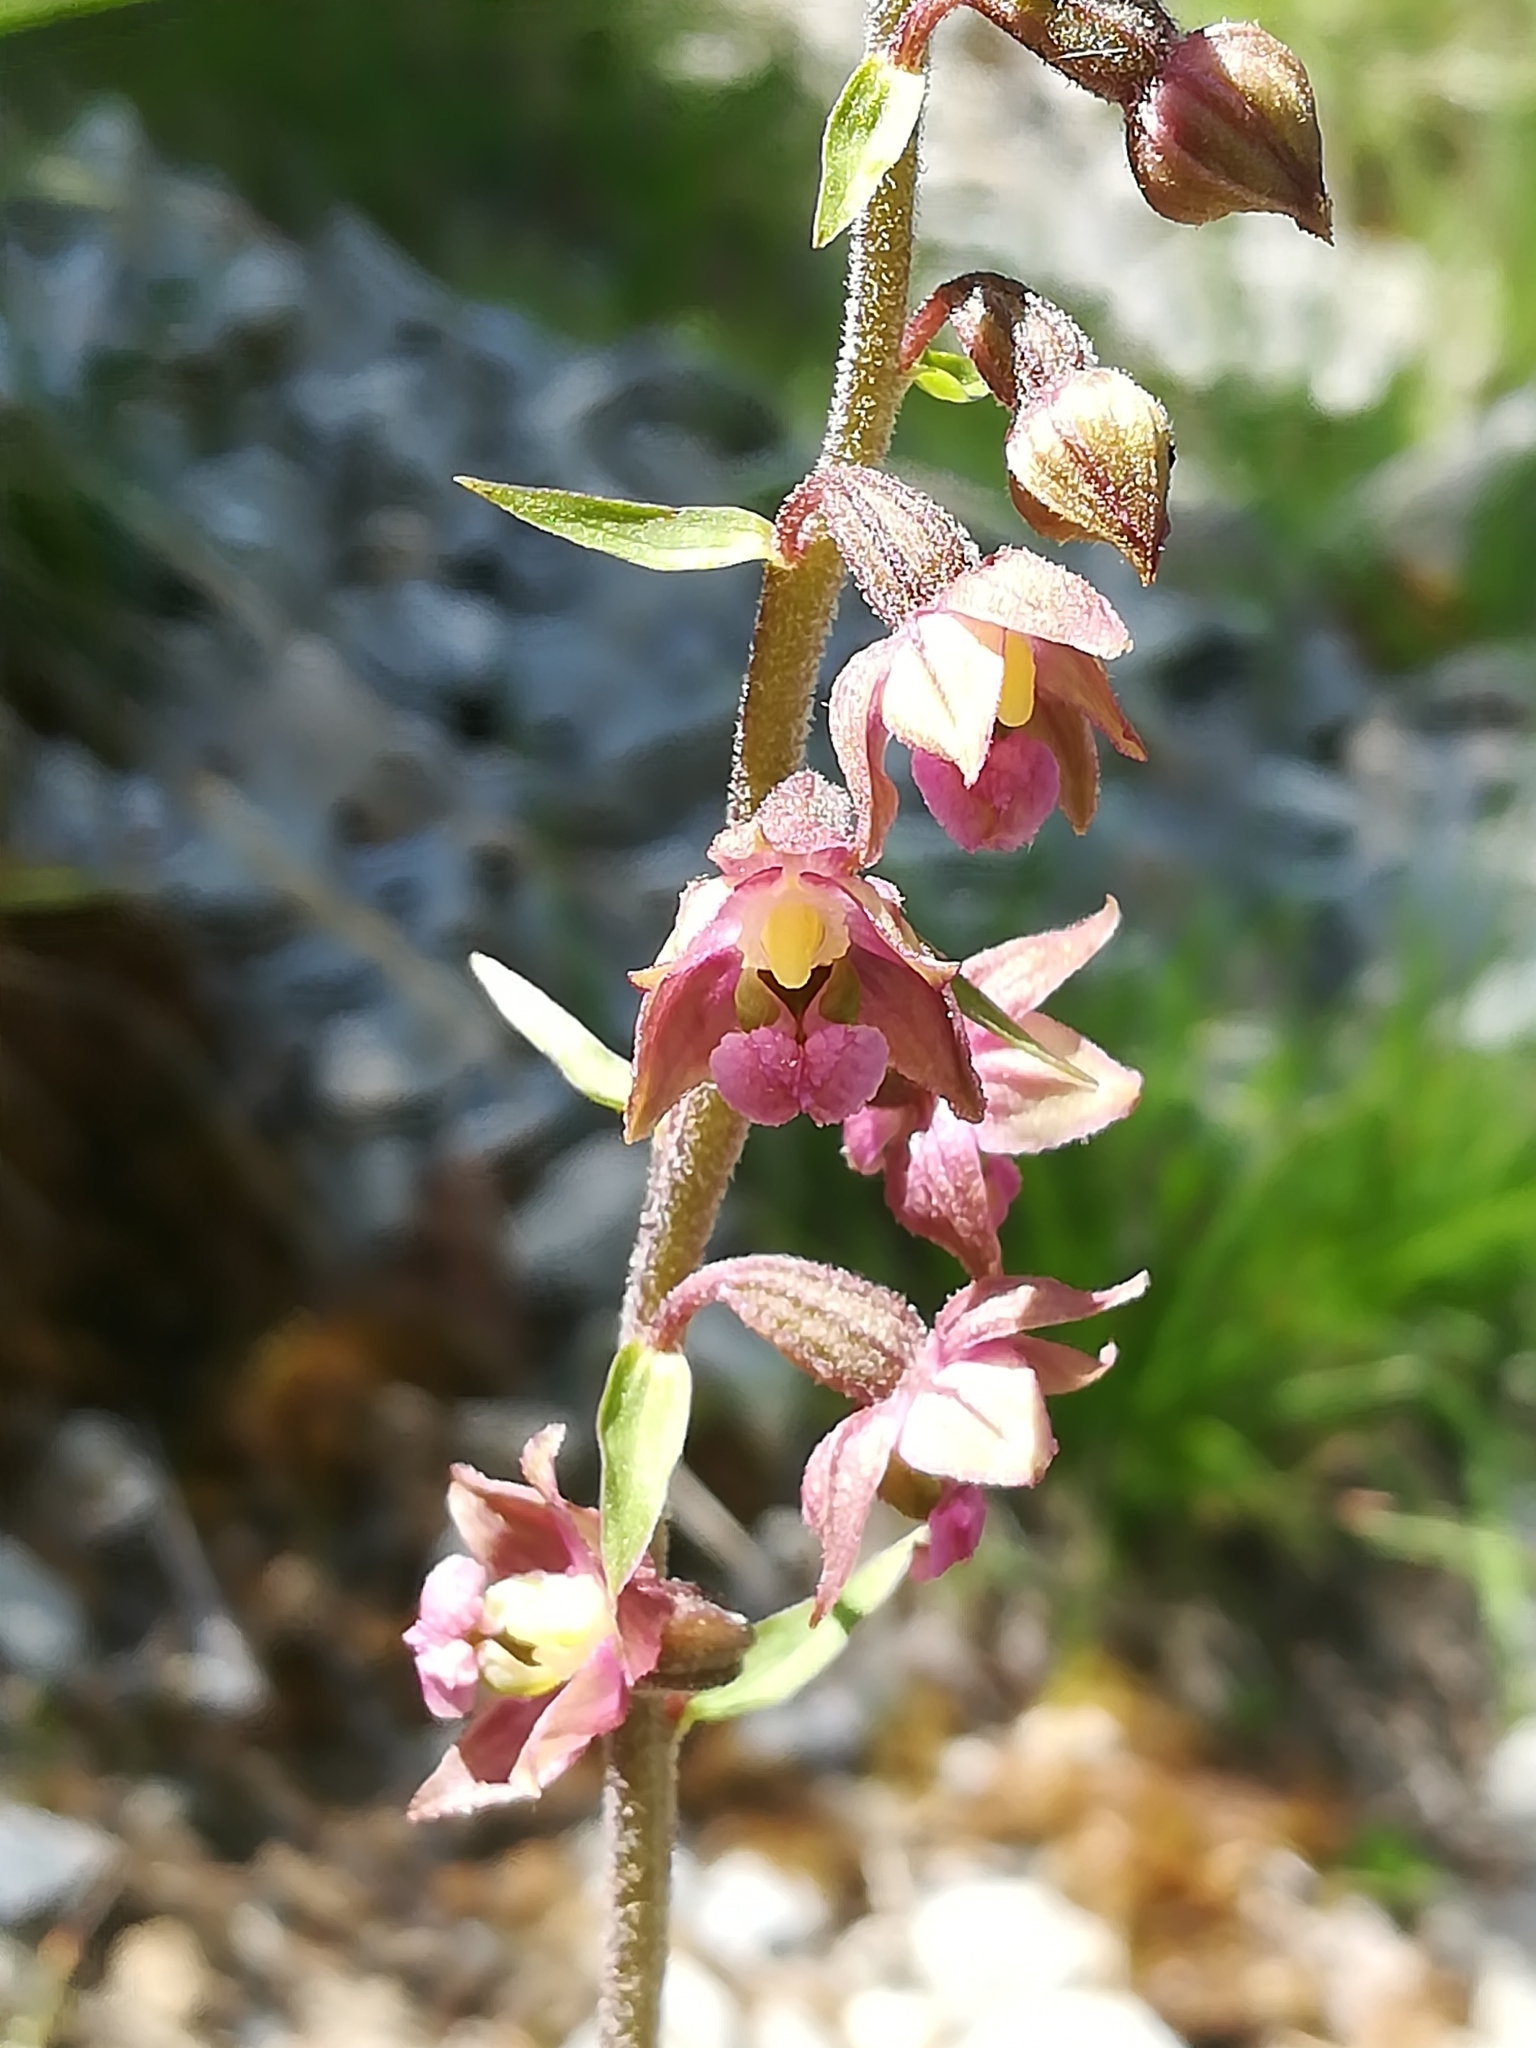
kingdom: Plantae
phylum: Tracheophyta
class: Liliopsida
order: Asparagales
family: Orchidaceae
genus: Epipactis
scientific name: Epipactis atrorubens
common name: Dark-red helleborine
